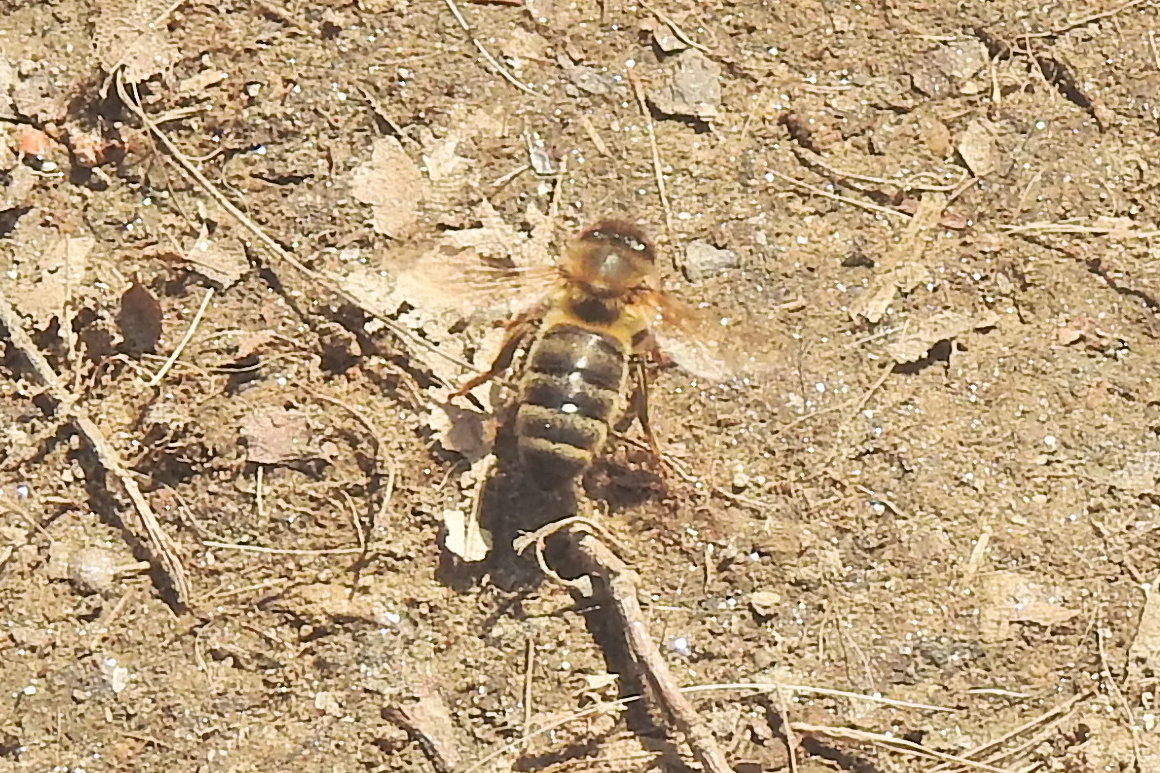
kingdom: Animalia
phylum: Arthropoda
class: Insecta
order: Hymenoptera
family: Apidae
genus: Apis
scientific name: Apis mellifera
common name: Honey bee
